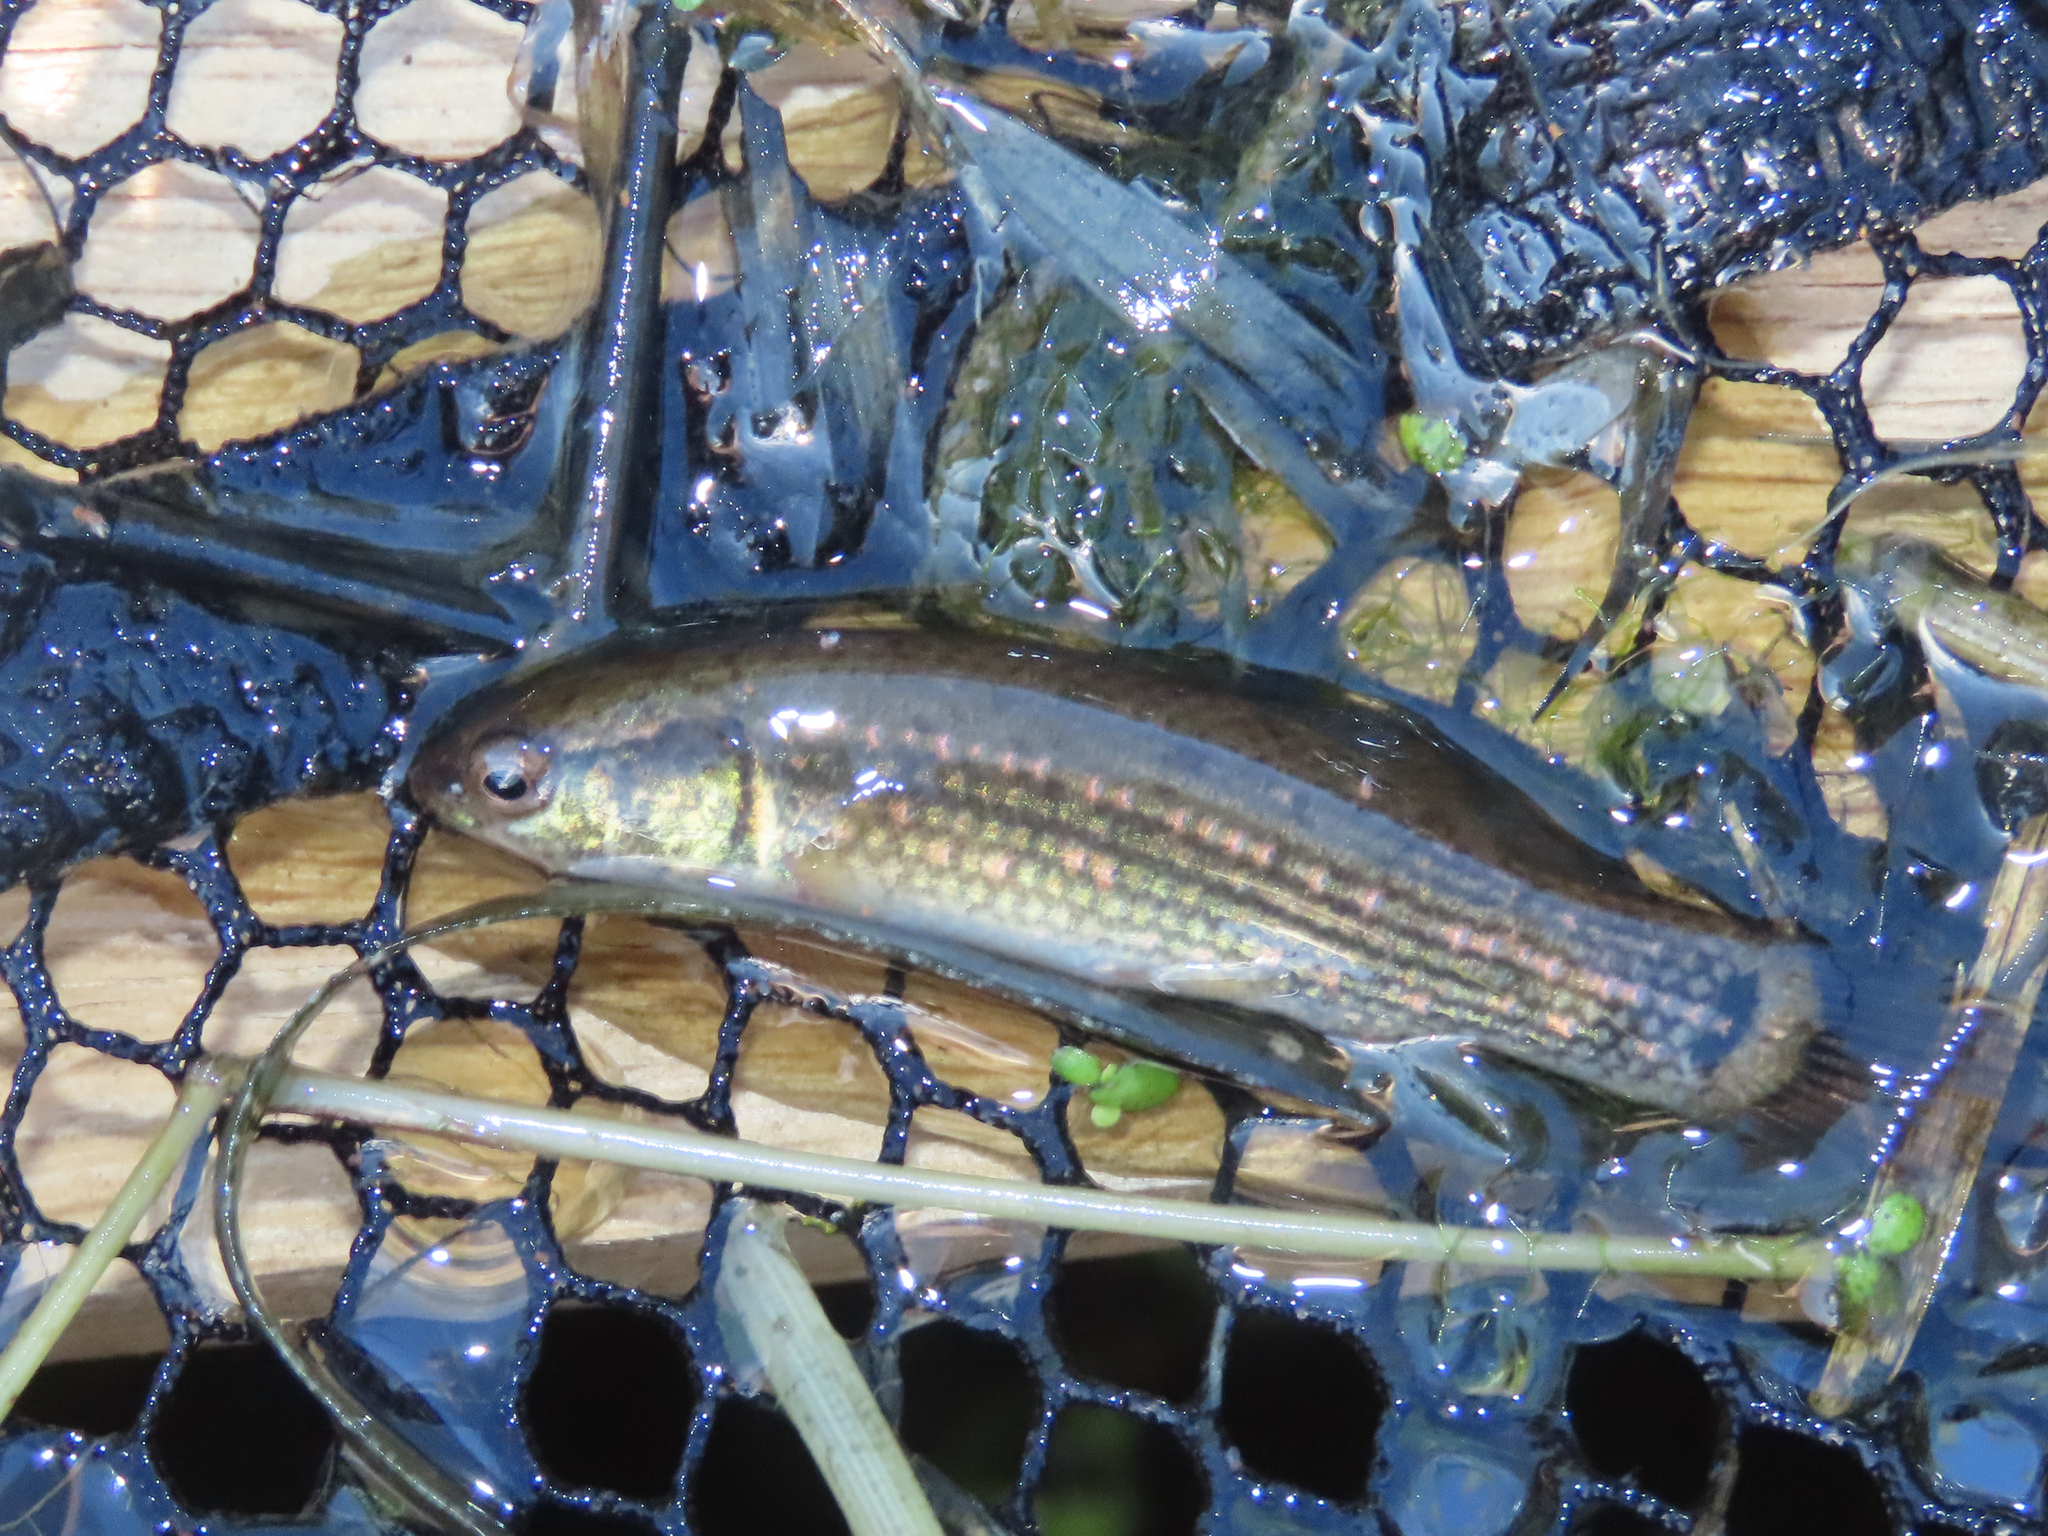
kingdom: Animalia
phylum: Chordata
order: Esociformes
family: Umbridae
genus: Umbra
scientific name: Umbra pygmaea
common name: Eastern mudminnow
